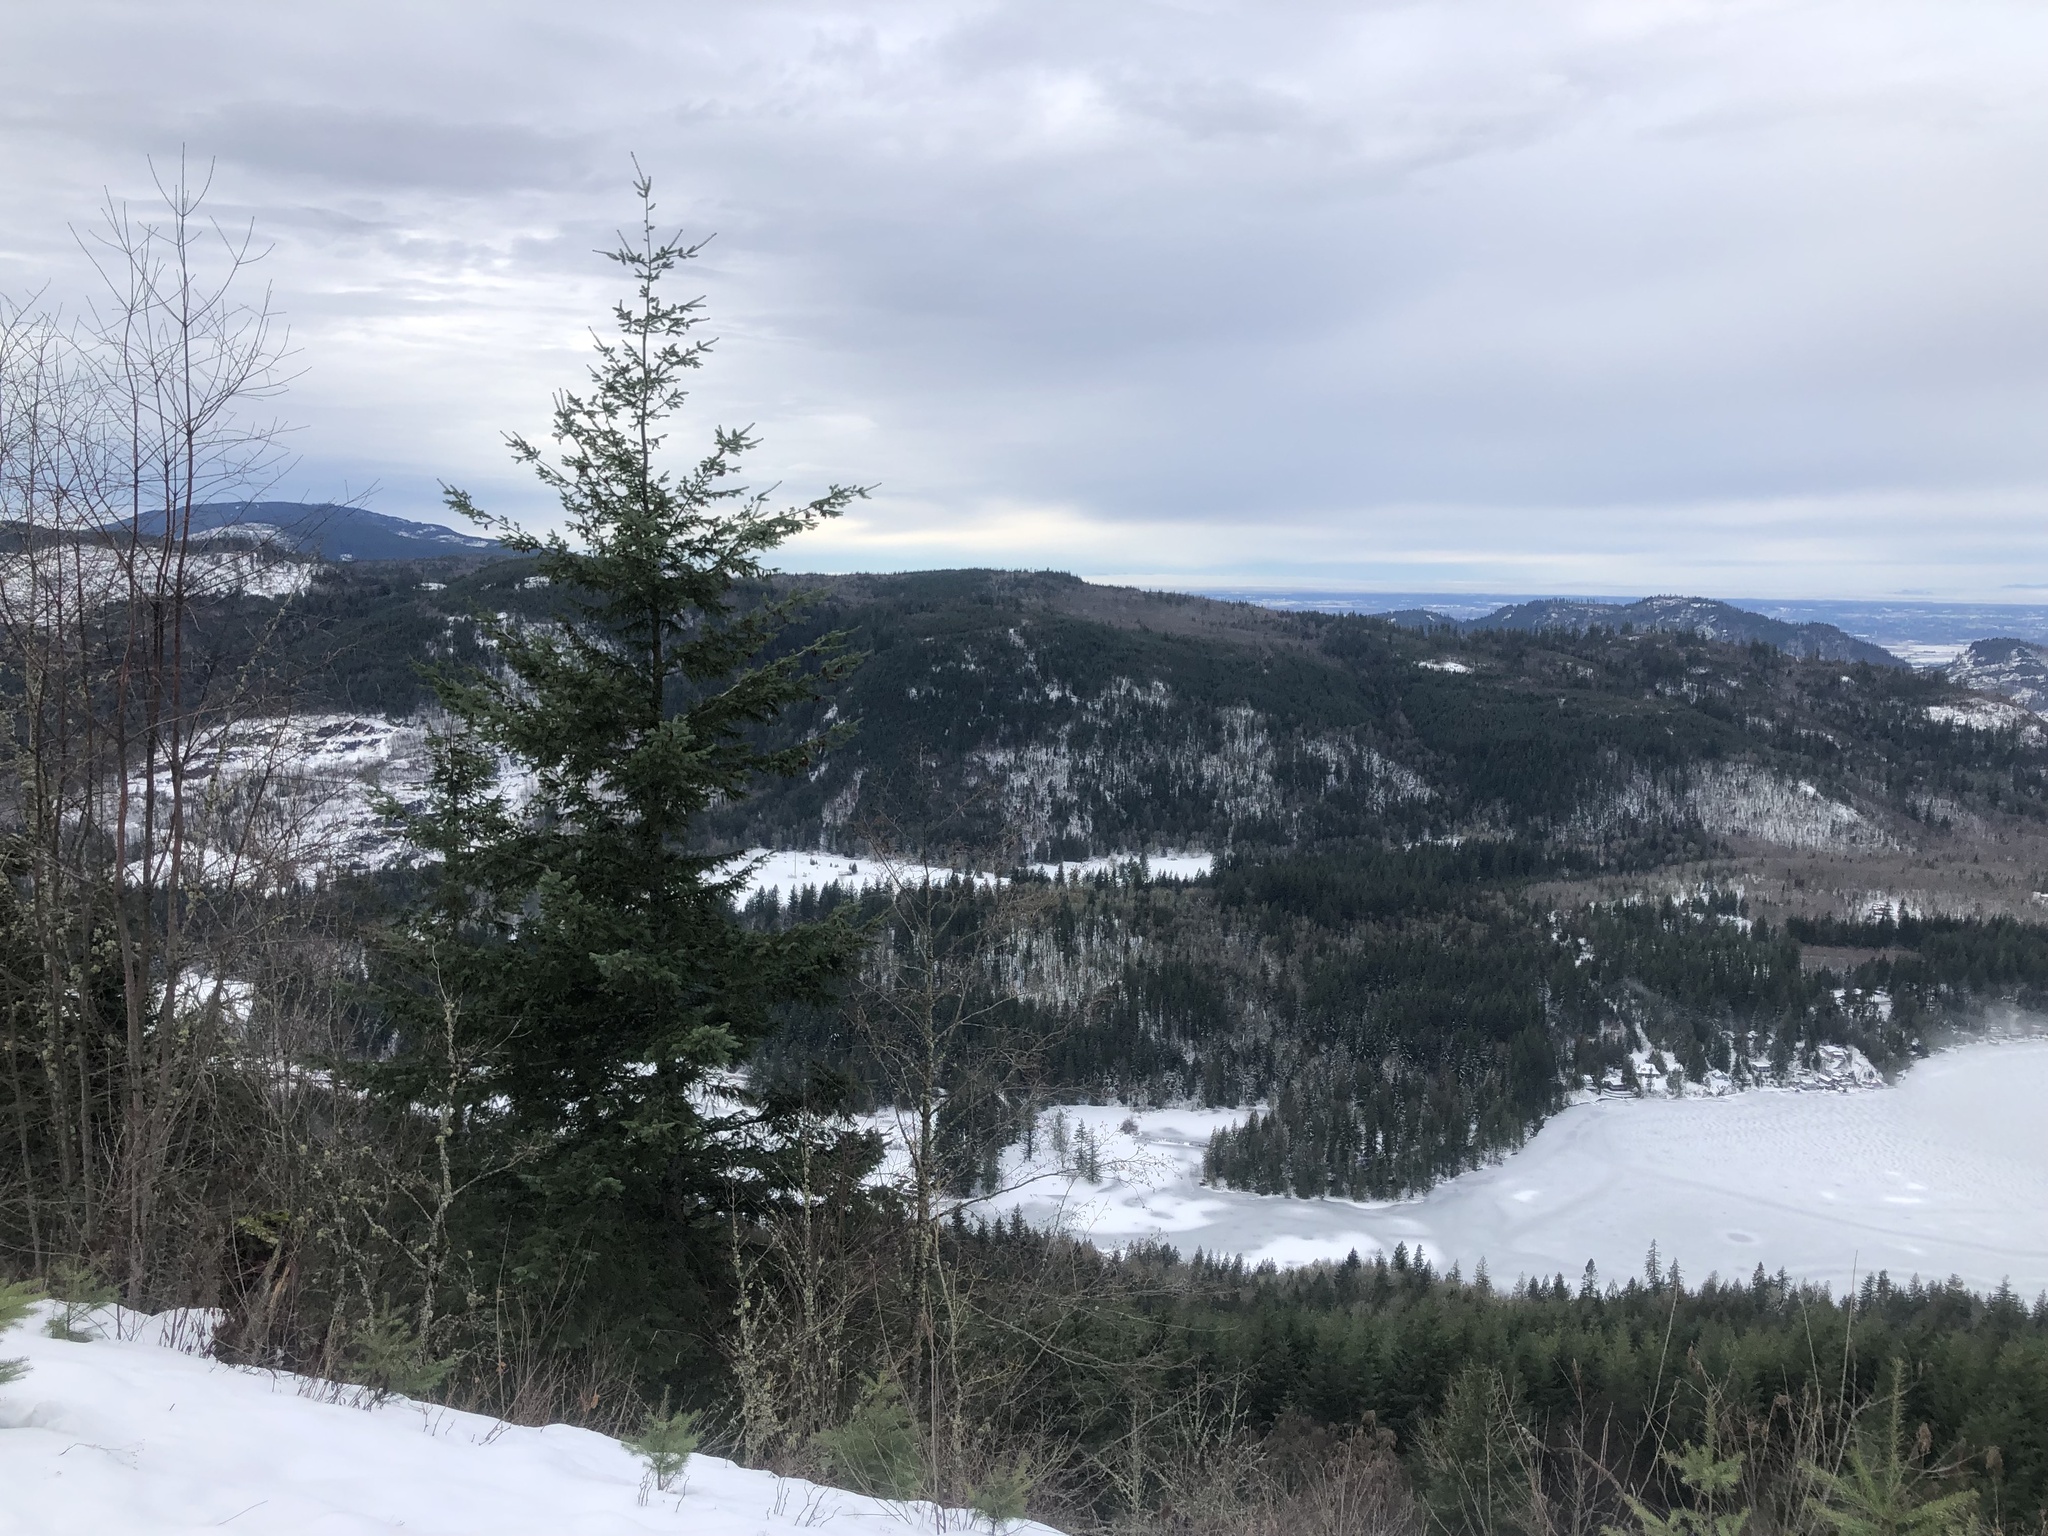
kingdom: Plantae
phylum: Tracheophyta
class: Pinopsida
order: Pinales
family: Pinaceae
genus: Pseudotsuga
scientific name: Pseudotsuga menziesii
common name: Douglas fir
